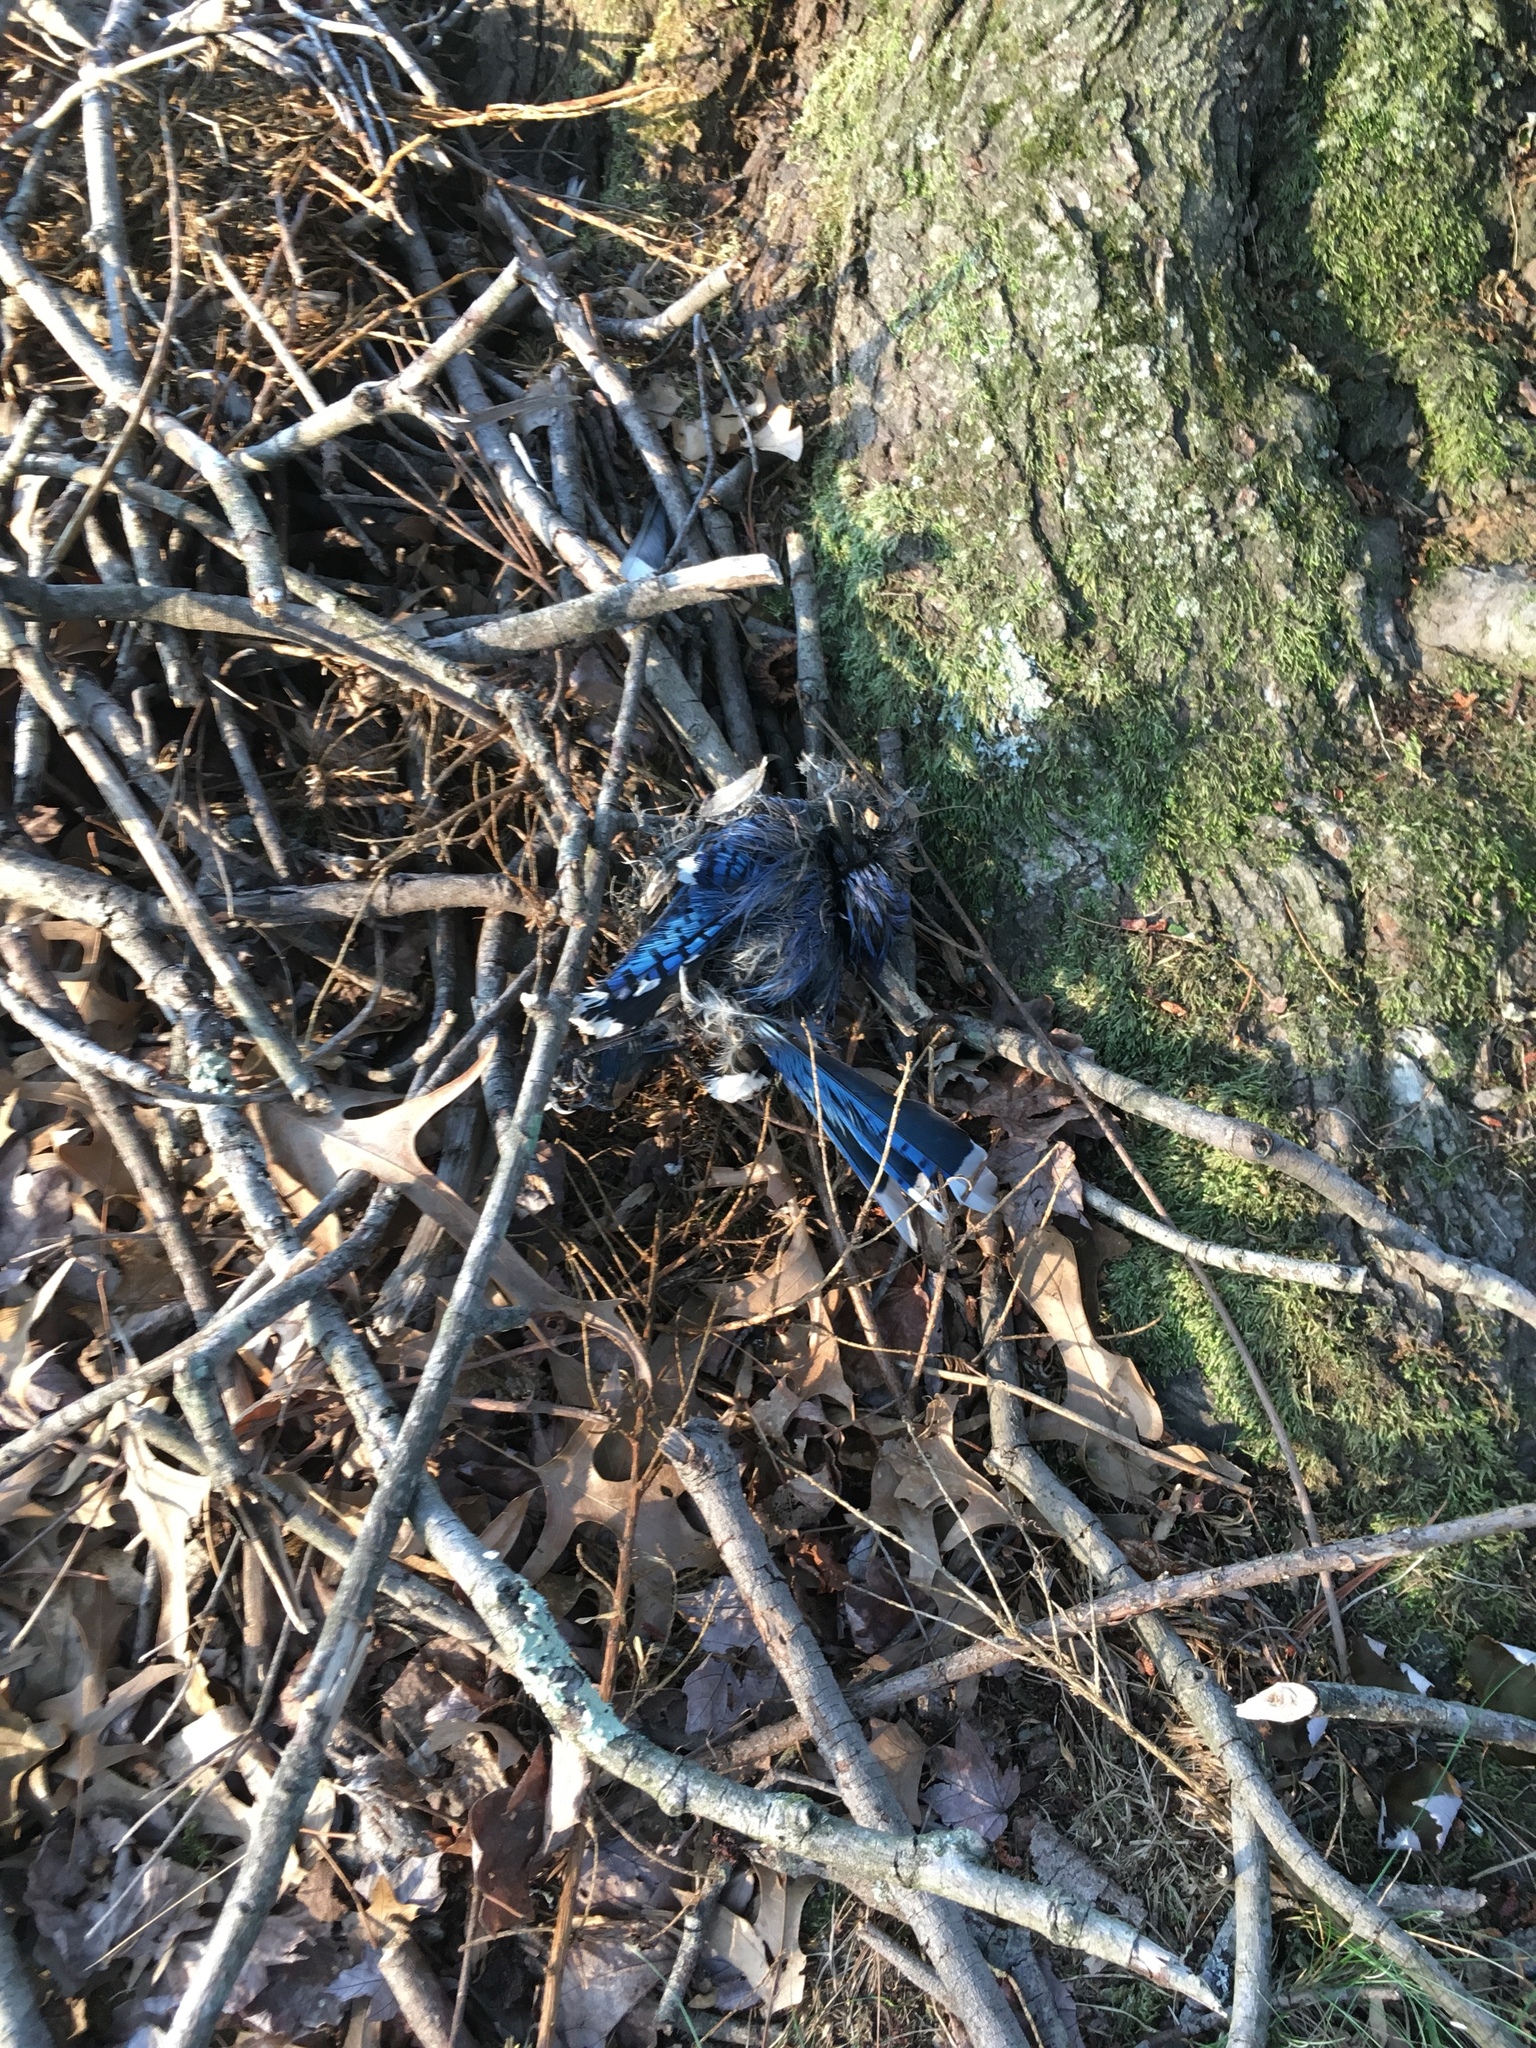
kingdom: Animalia
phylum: Chordata
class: Aves
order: Passeriformes
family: Corvidae
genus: Cyanocitta
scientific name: Cyanocitta cristata
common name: Blue jay
